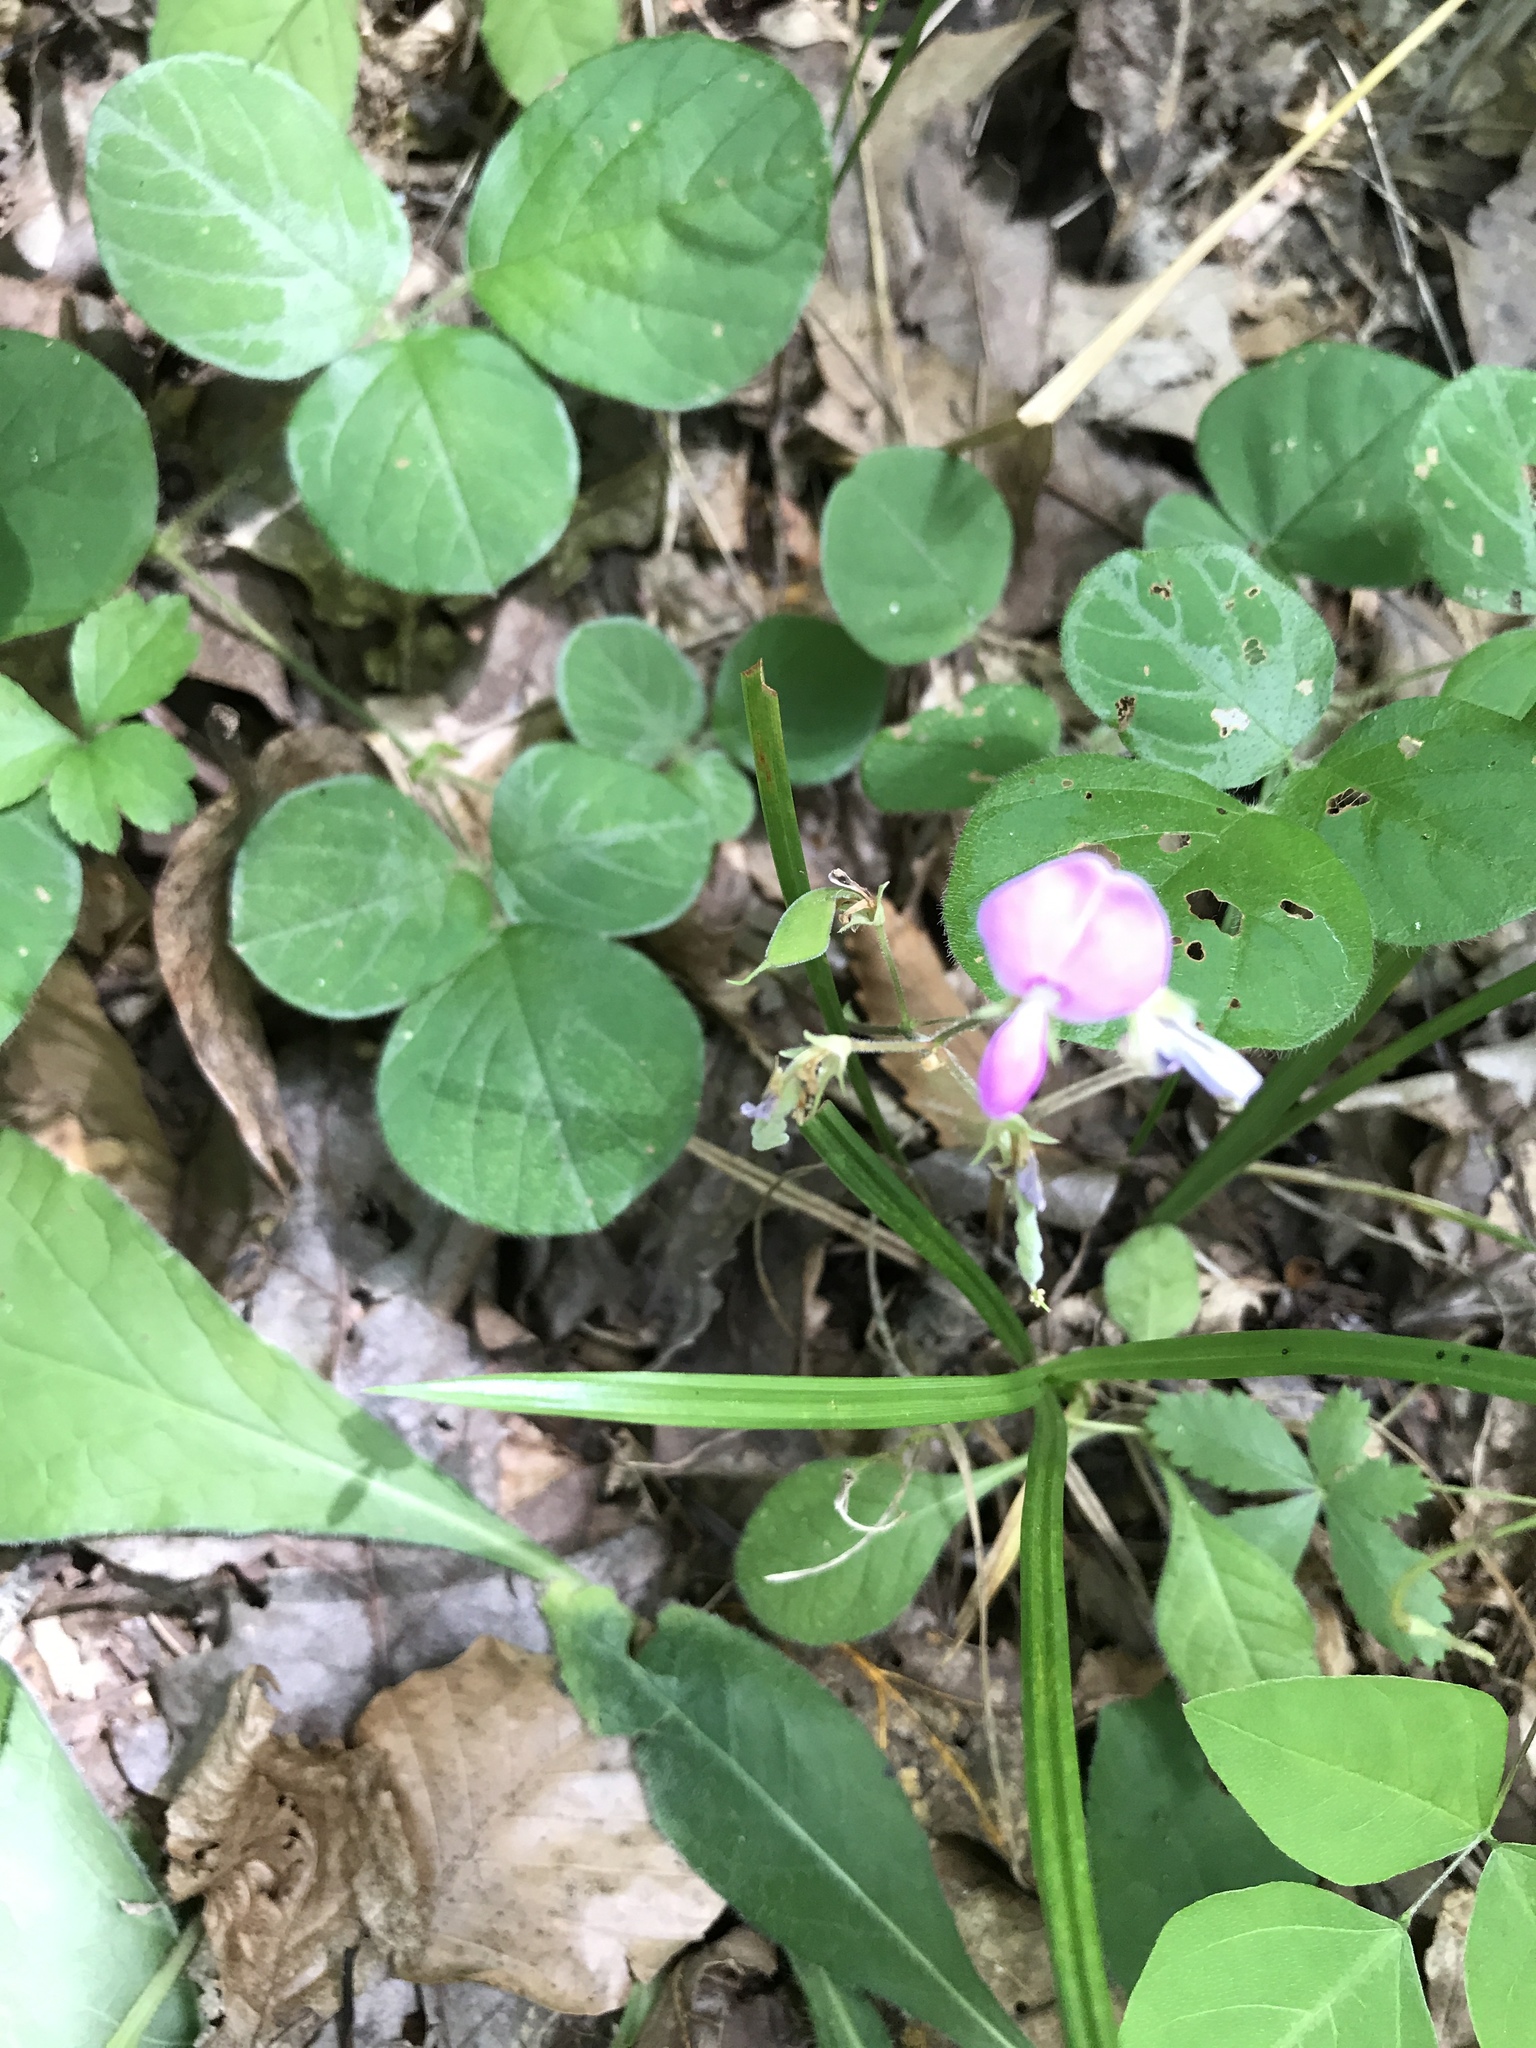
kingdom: Plantae
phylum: Tracheophyta
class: Magnoliopsida
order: Fabales
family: Fabaceae
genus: Desmodium
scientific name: Desmodium rotundifolium
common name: Dollarleaf
